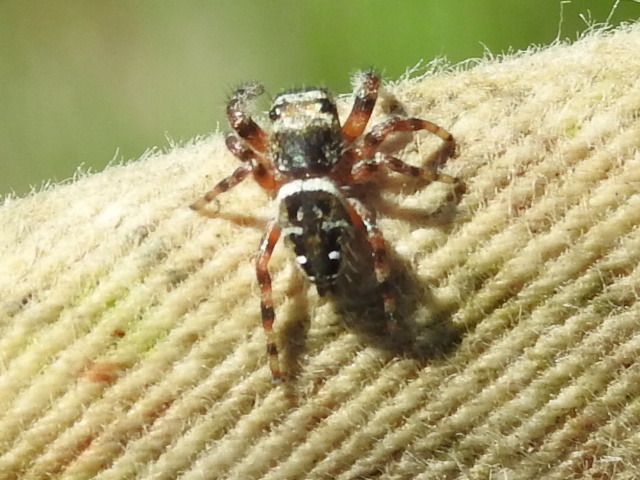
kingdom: Animalia
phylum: Arthropoda
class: Arachnida
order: Araneae
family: Salticidae
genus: Phidippus
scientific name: Phidippus clarus
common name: Brilliant jumping spider
